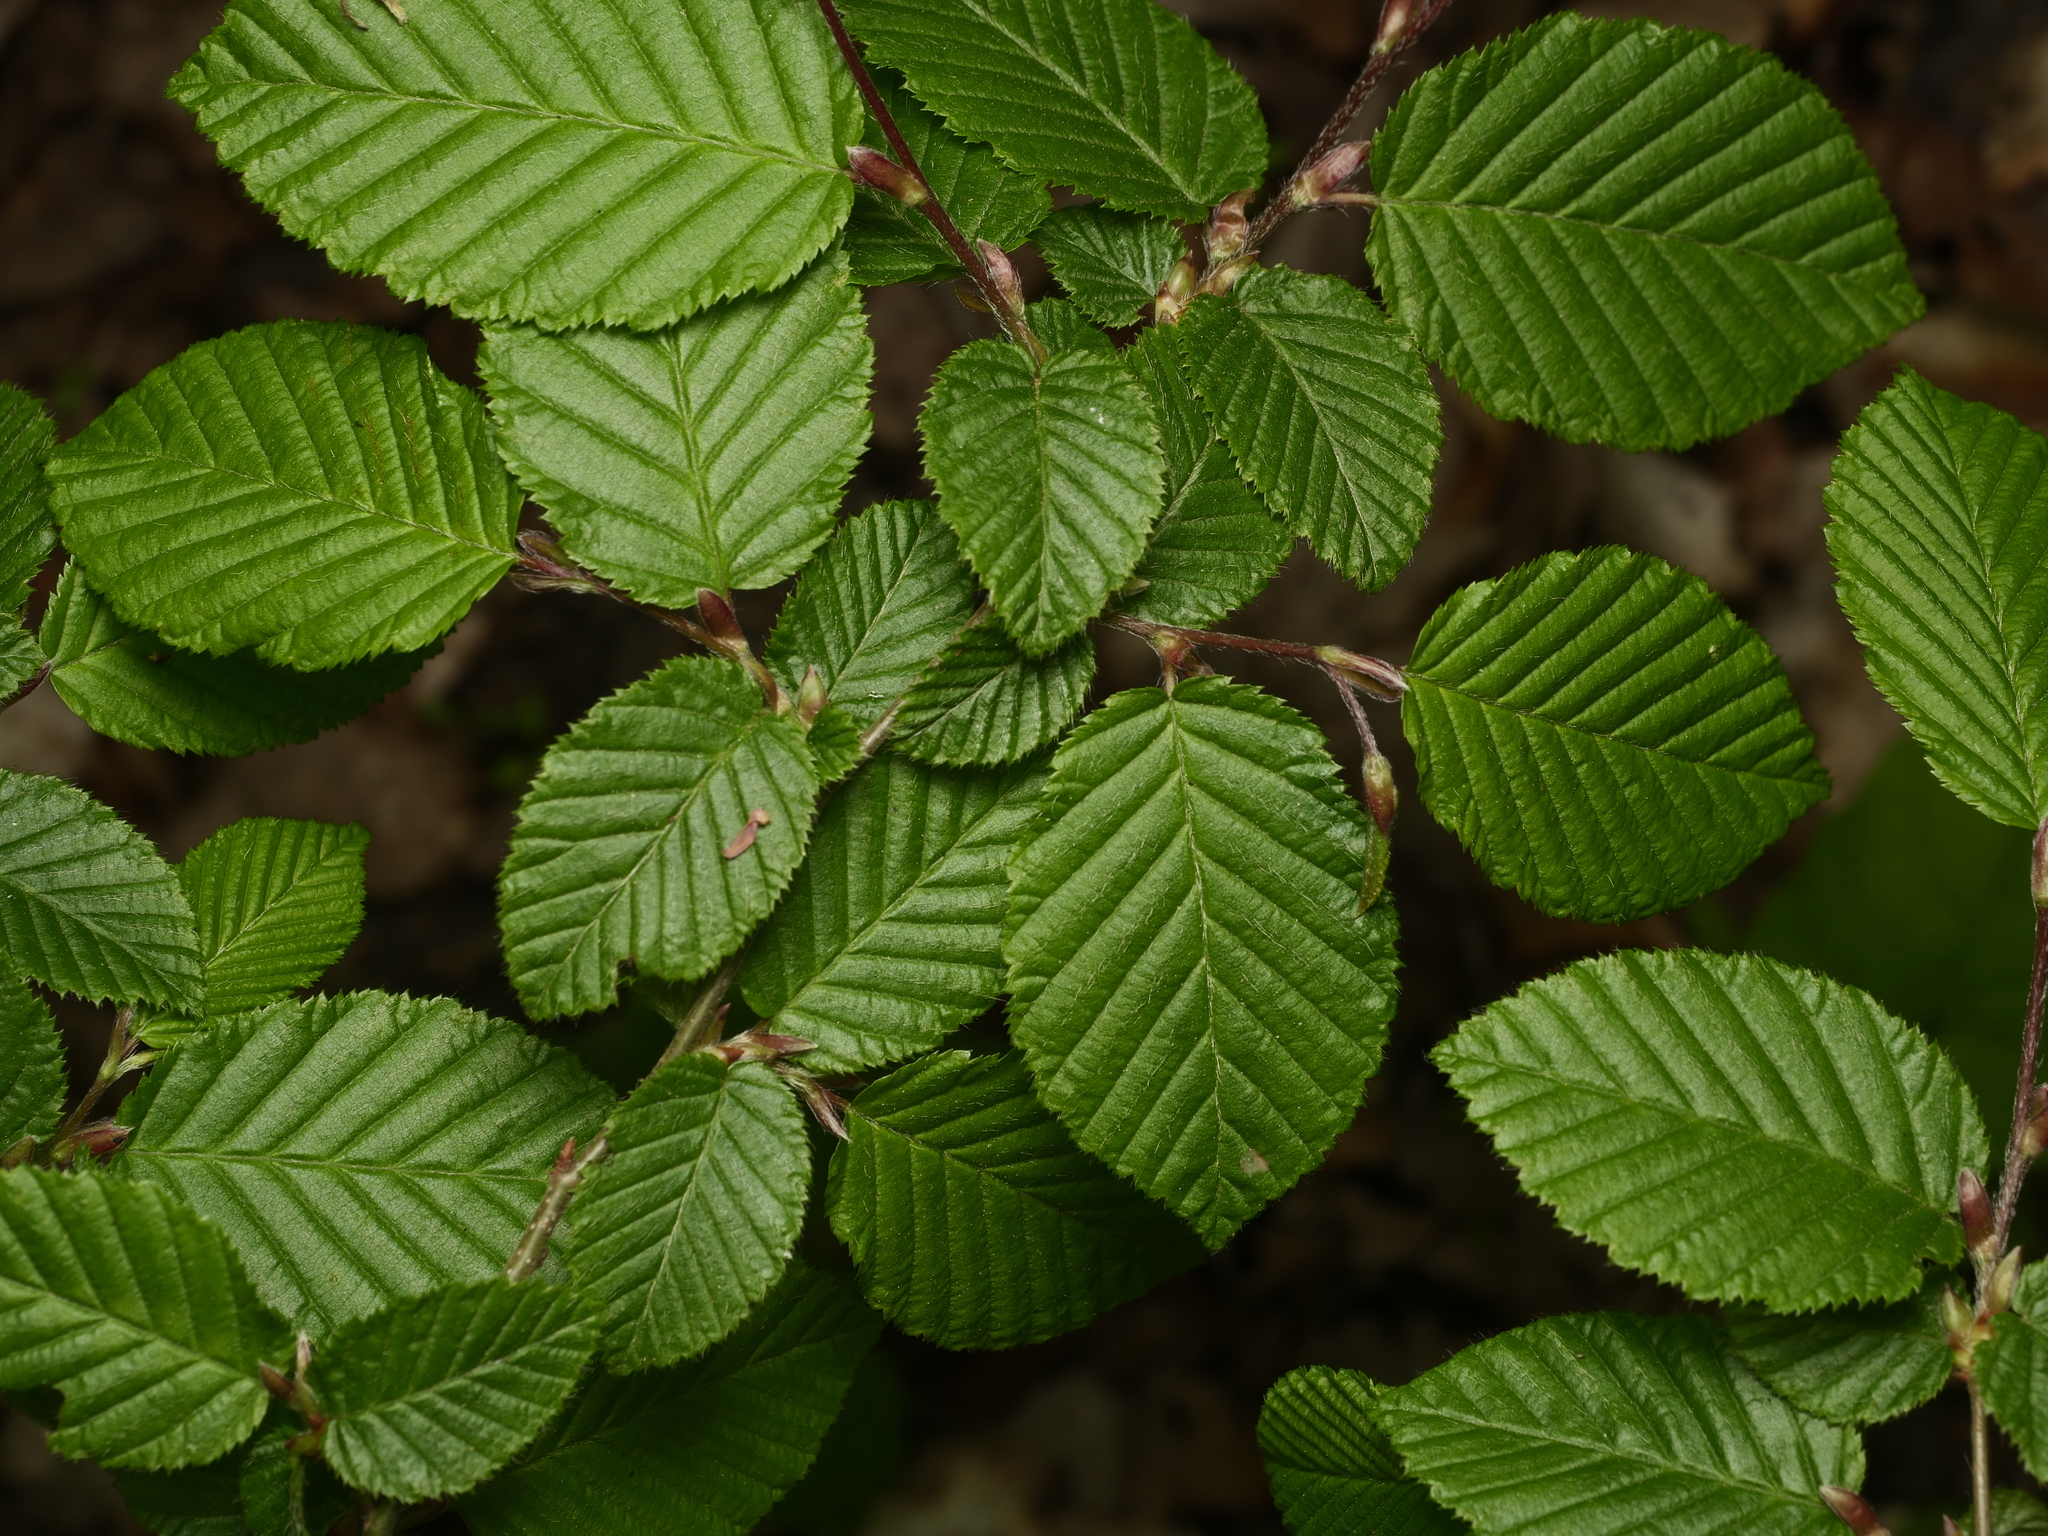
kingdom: Plantae
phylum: Tracheophyta
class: Magnoliopsida
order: Fagales
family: Betulaceae
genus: Carpinus
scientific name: Carpinus betulus
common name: Hornbeam
